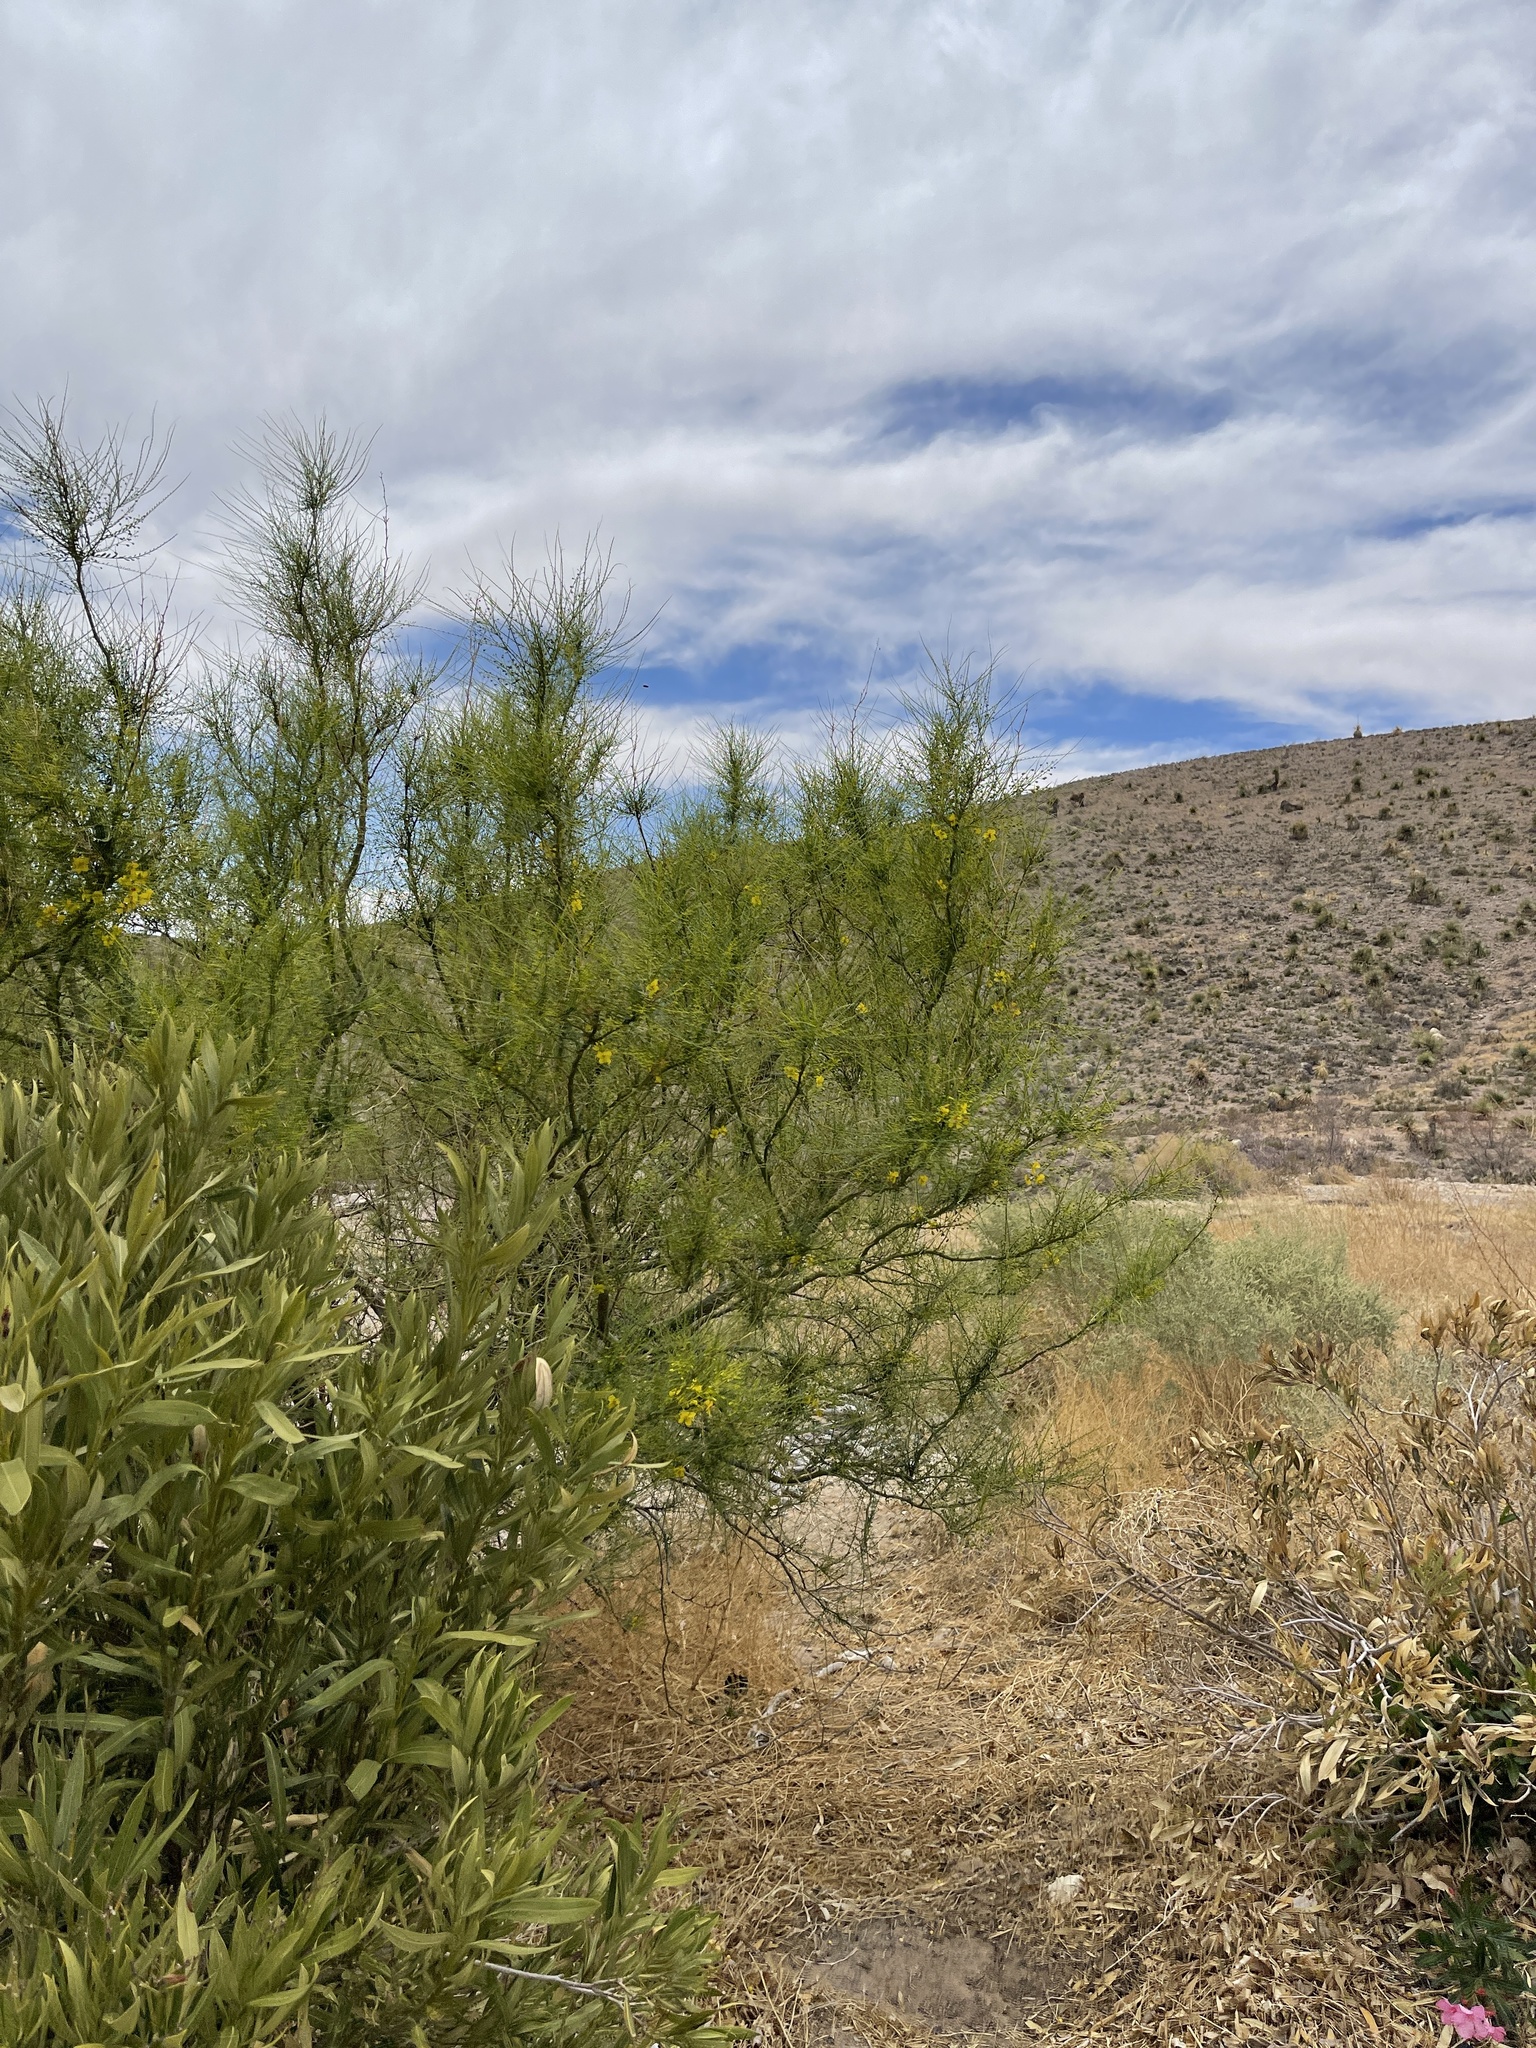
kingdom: Plantae
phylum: Tracheophyta
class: Magnoliopsida
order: Fabales
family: Fabaceae
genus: Parkinsonia
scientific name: Parkinsonia aculeata
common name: Jerusalem thorn
